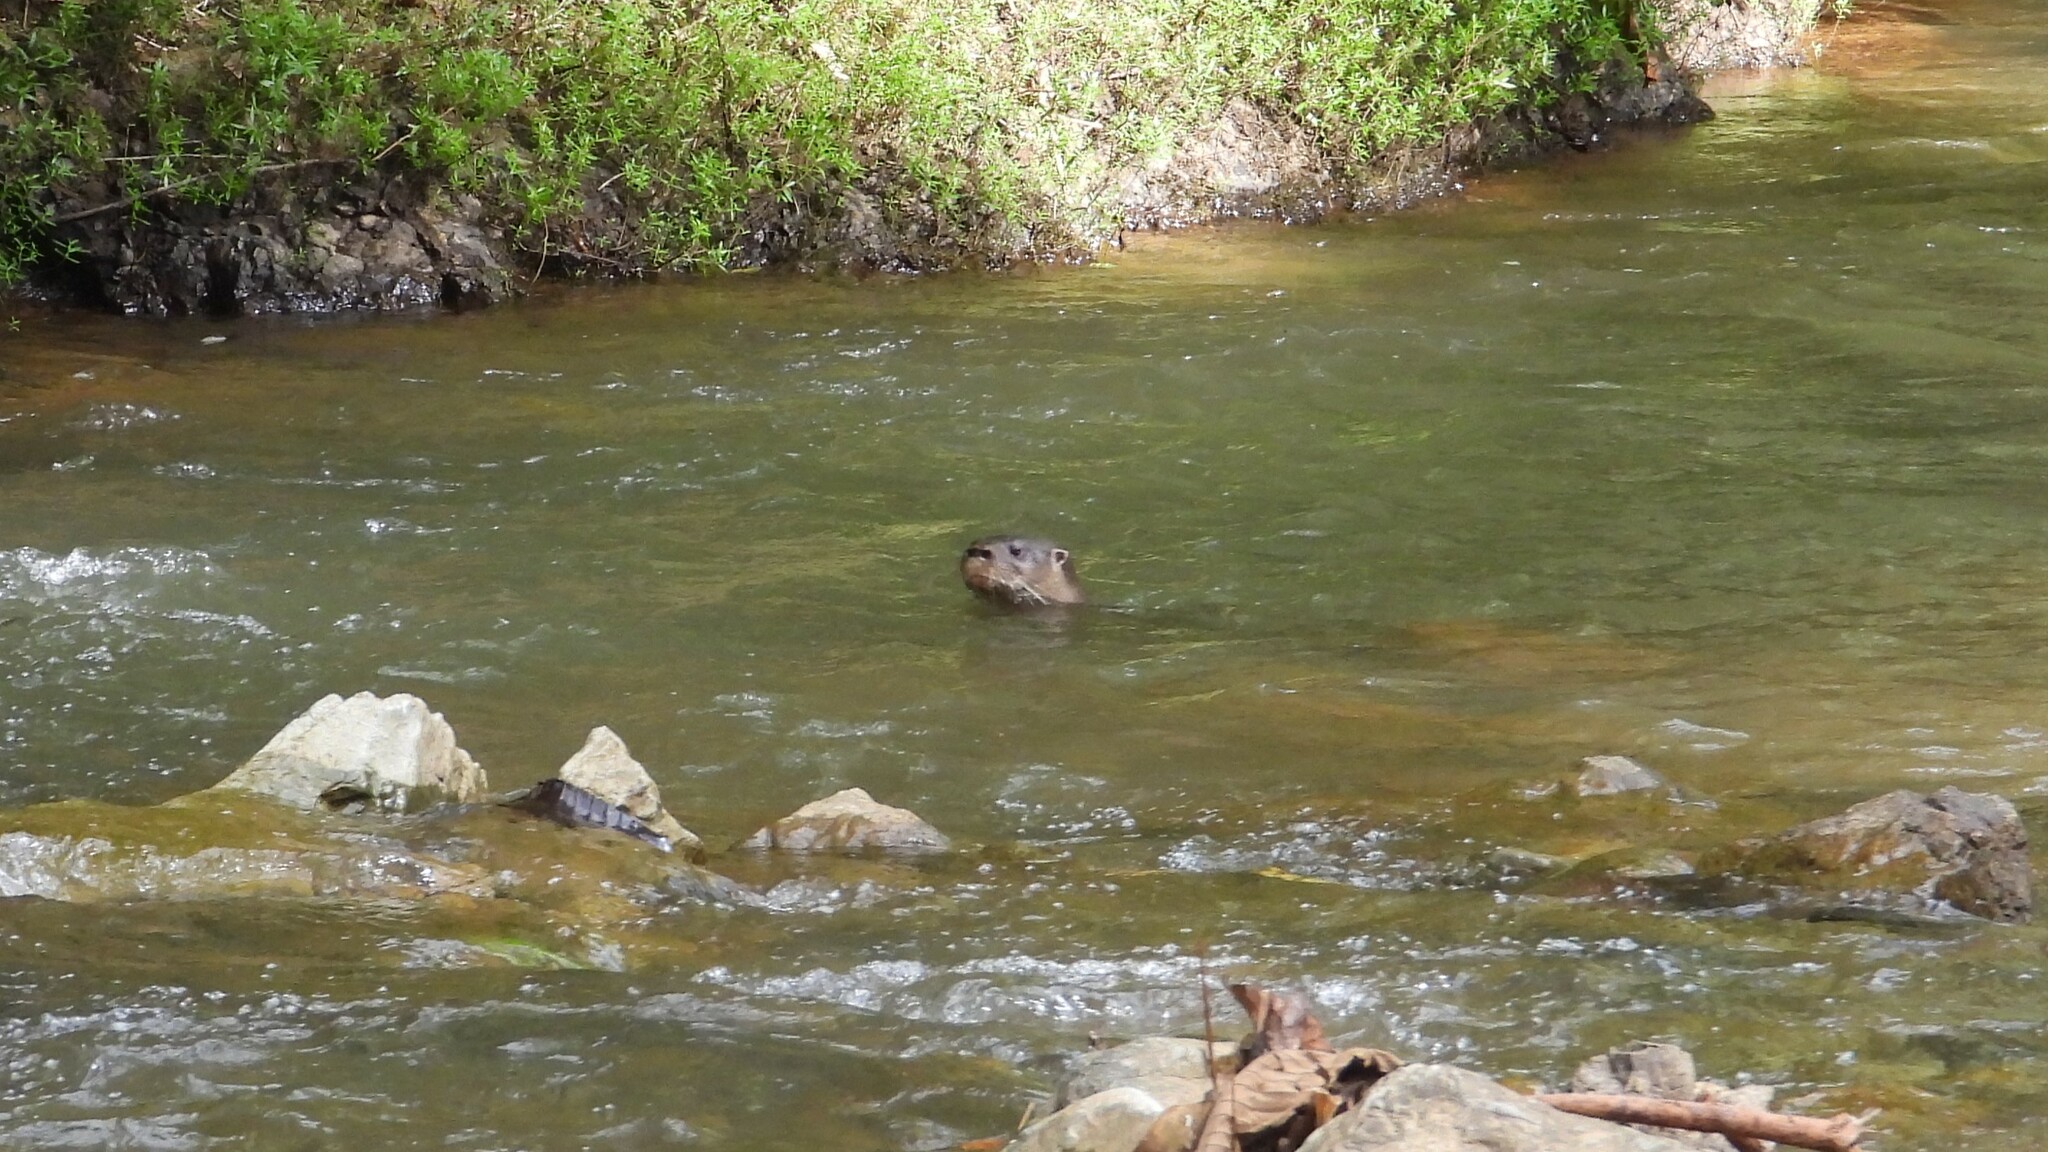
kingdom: Animalia
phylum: Chordata
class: Mammalia
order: Carnivora
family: Mustelidae
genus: Lontra
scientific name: Lontra longicaudis
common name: Neotropical otter
